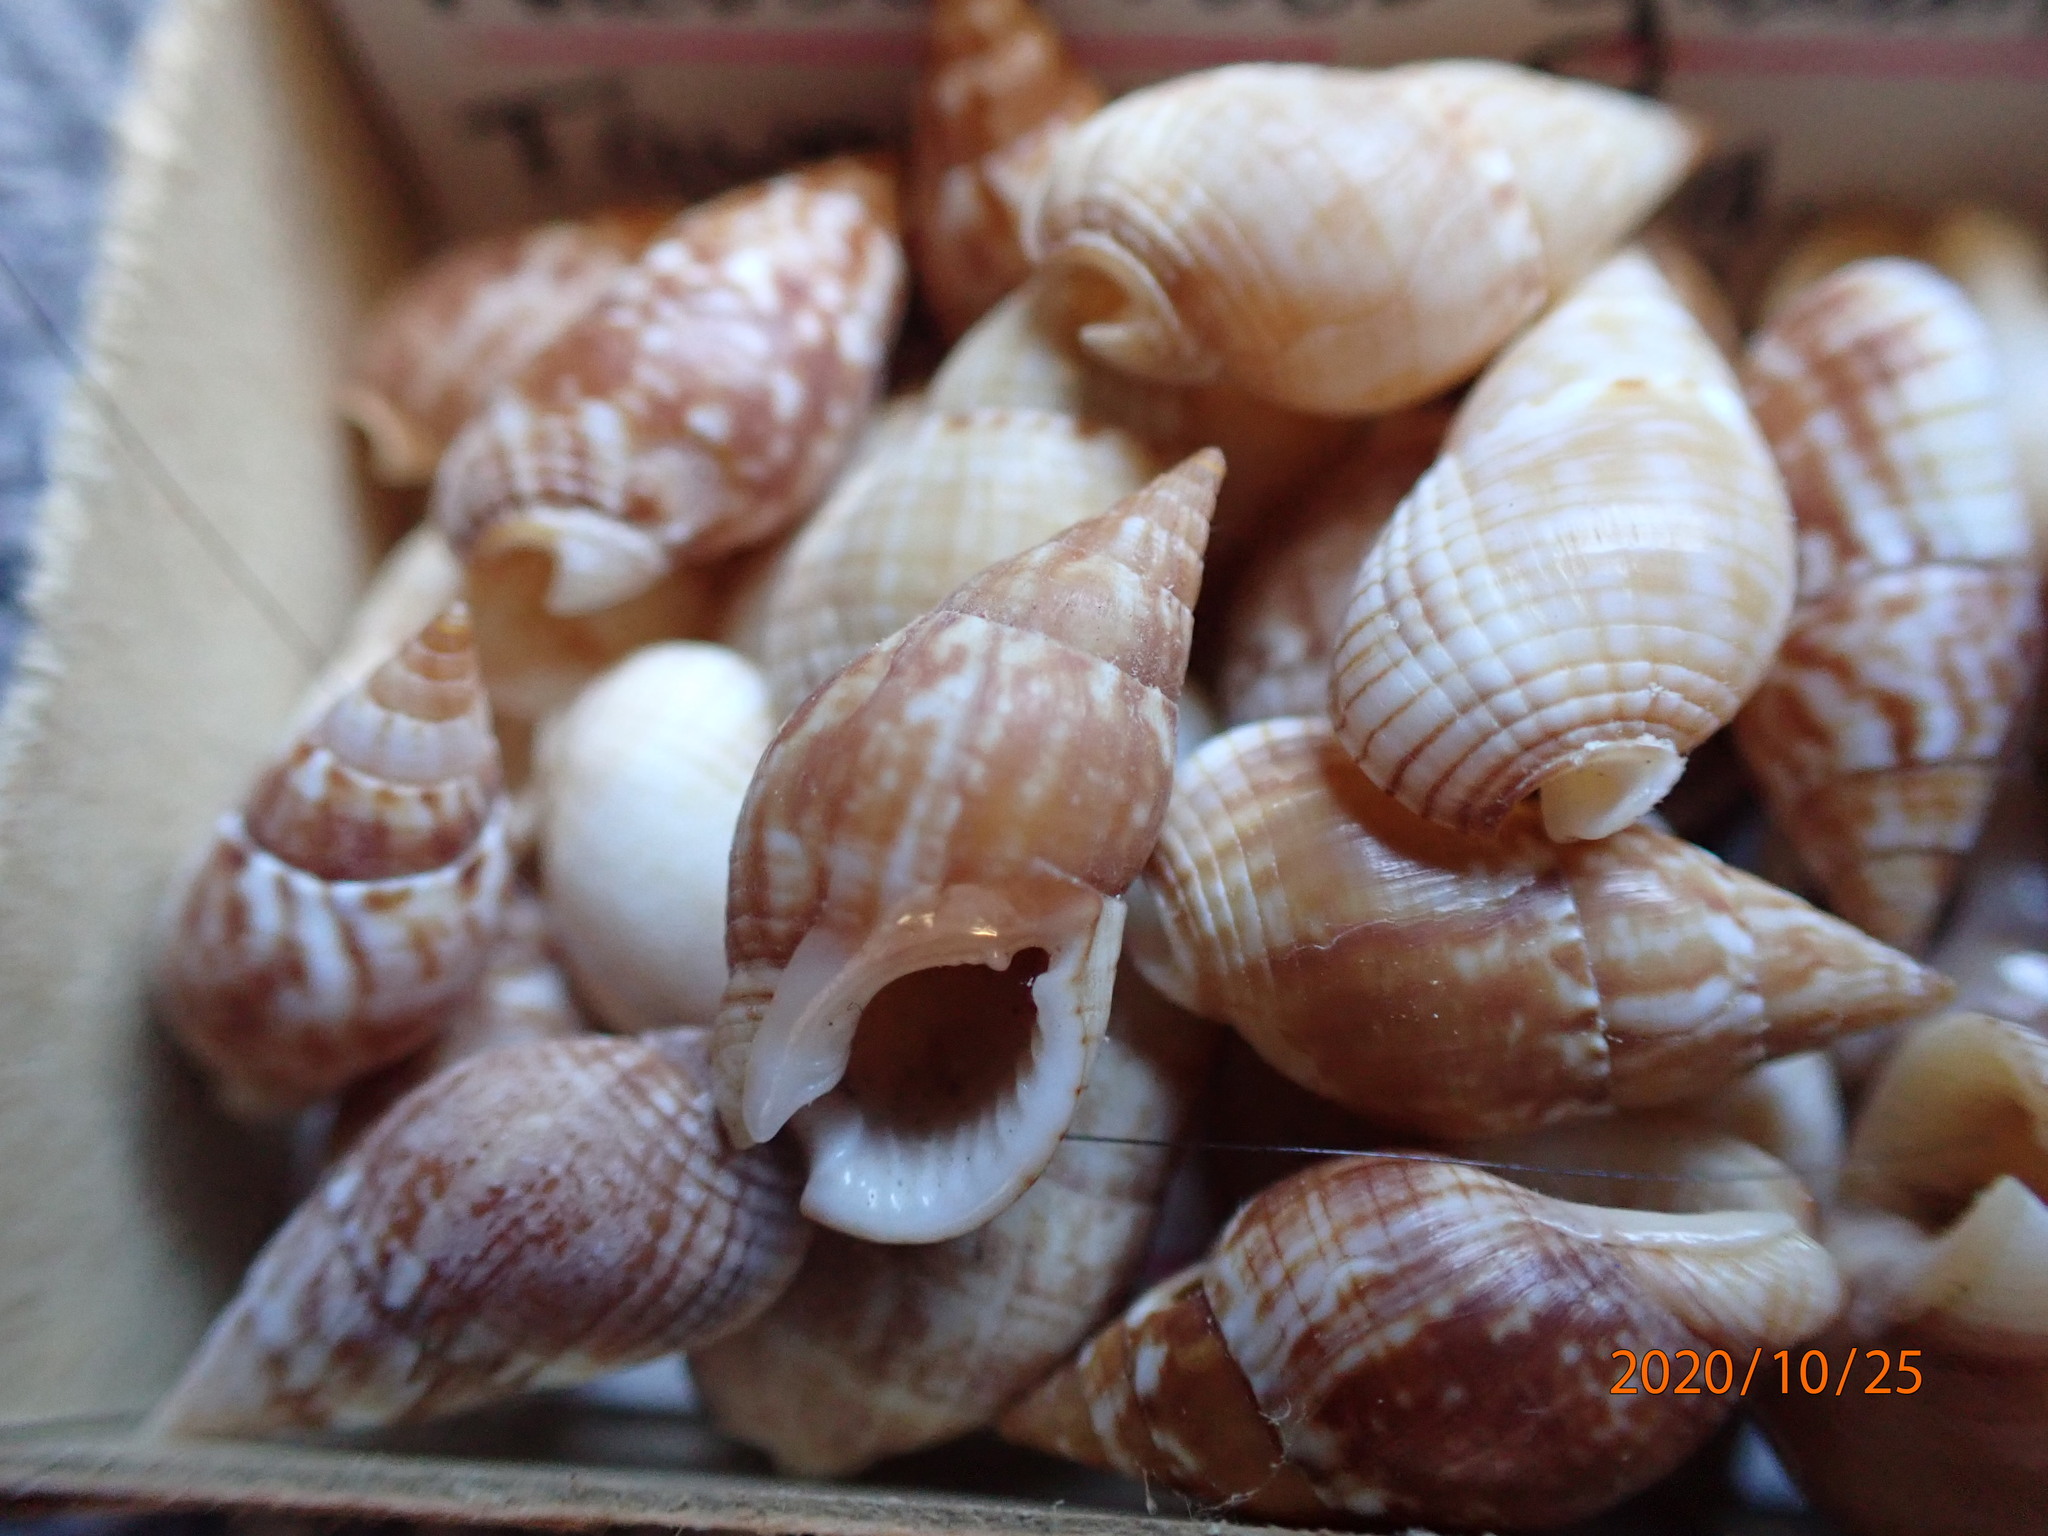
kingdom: Animalia
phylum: Mollusca
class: Gastropoda
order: Neogastropoda
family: Nassariidae
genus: Nassarius
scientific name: Nassarius gaudiosus
